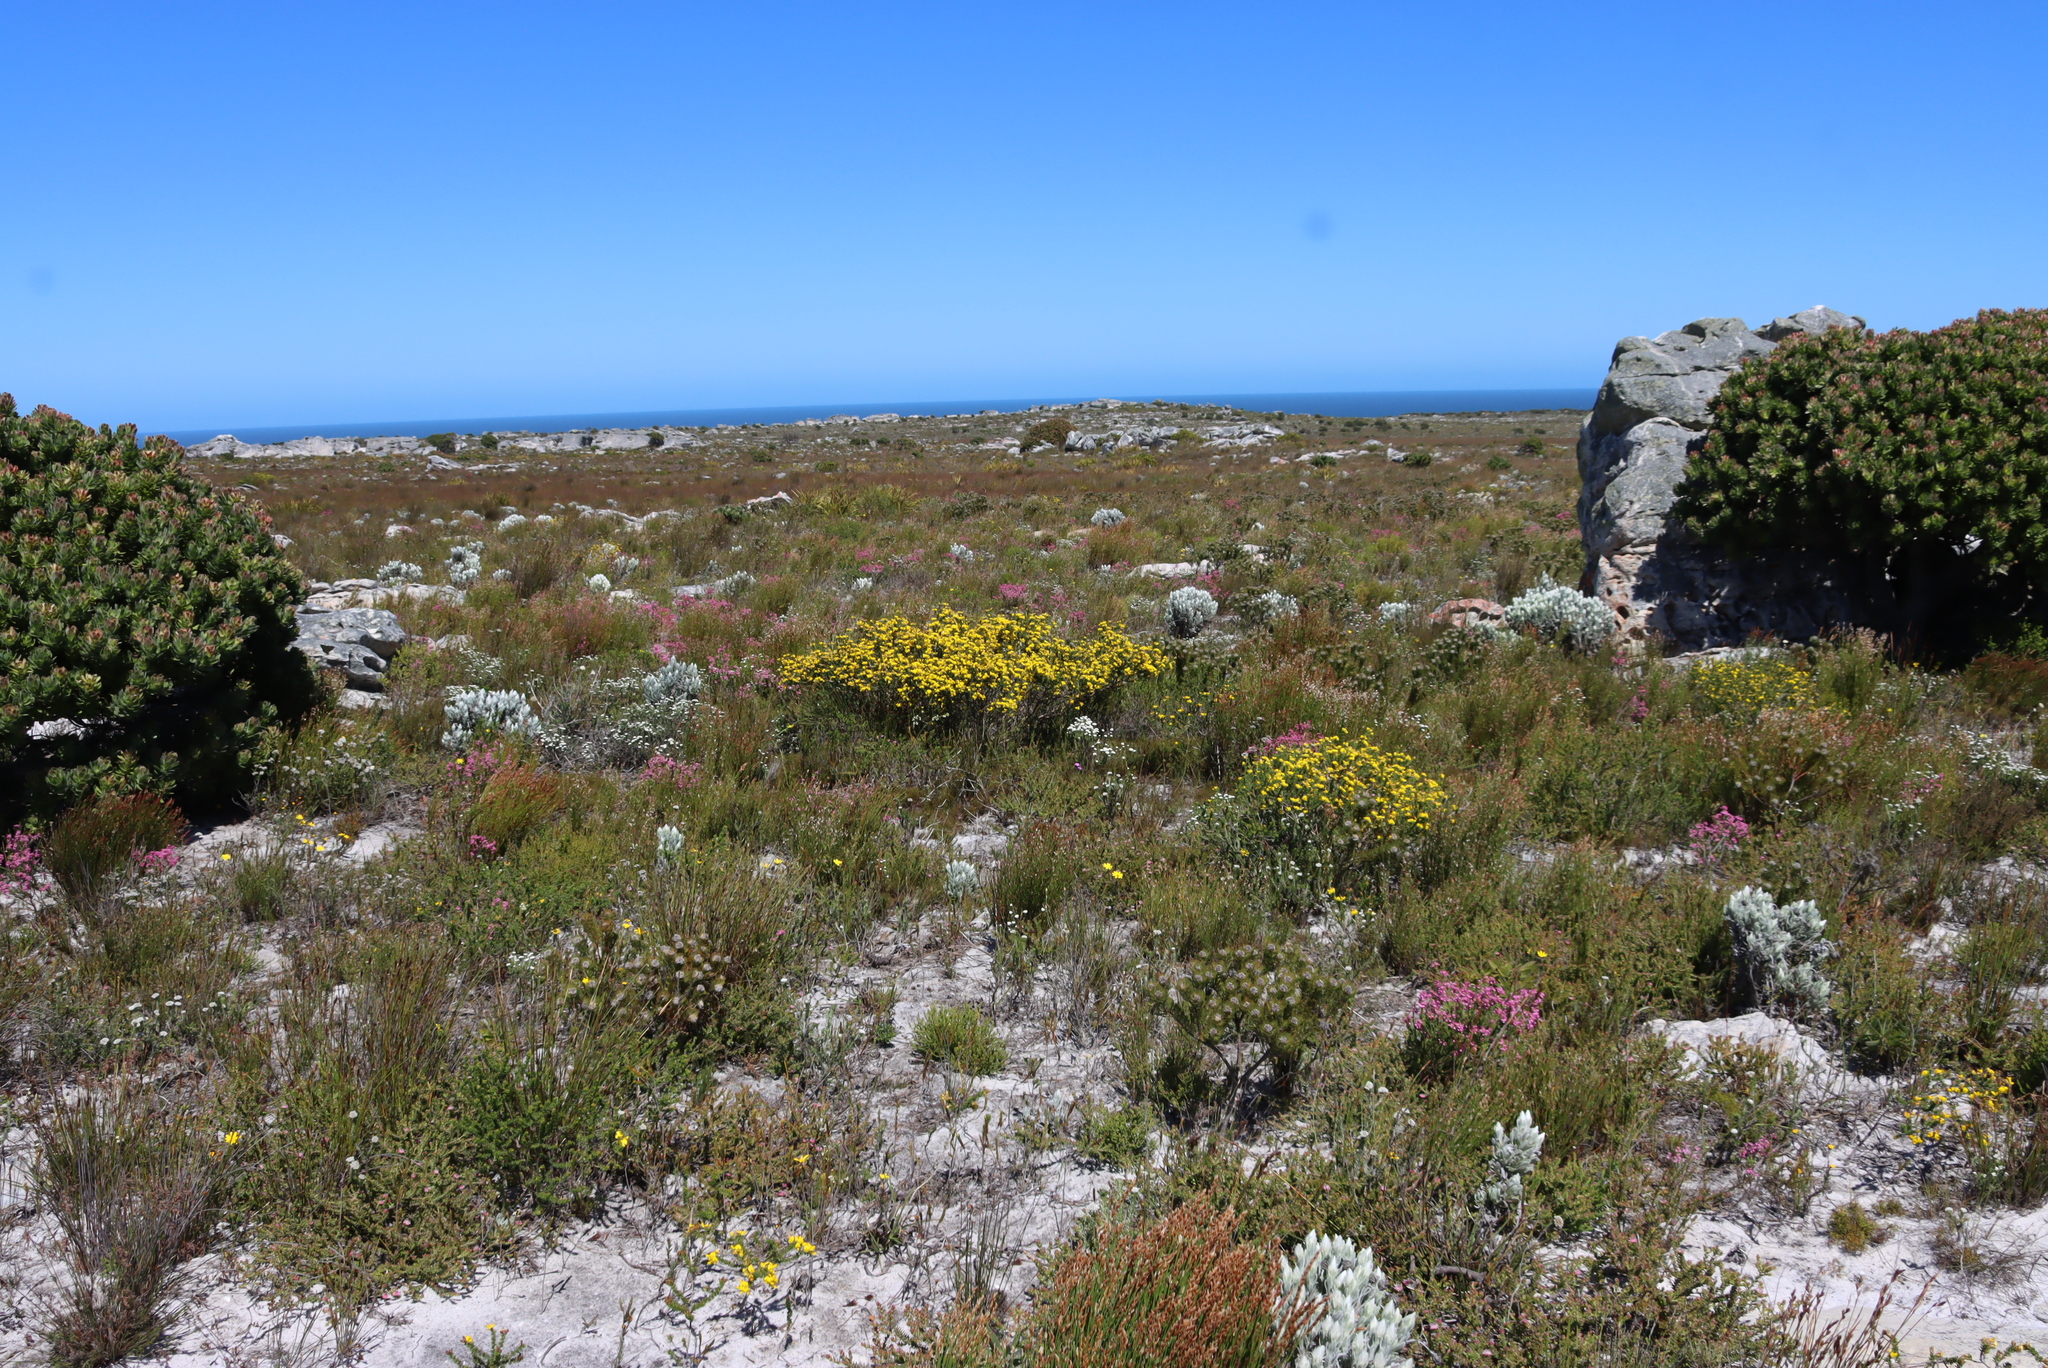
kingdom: Plantae
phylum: Tracheophyta
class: Magnoliopsida
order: Fabales
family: Fabaceae
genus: Aspalathus
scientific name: Aspalathus carnosa
